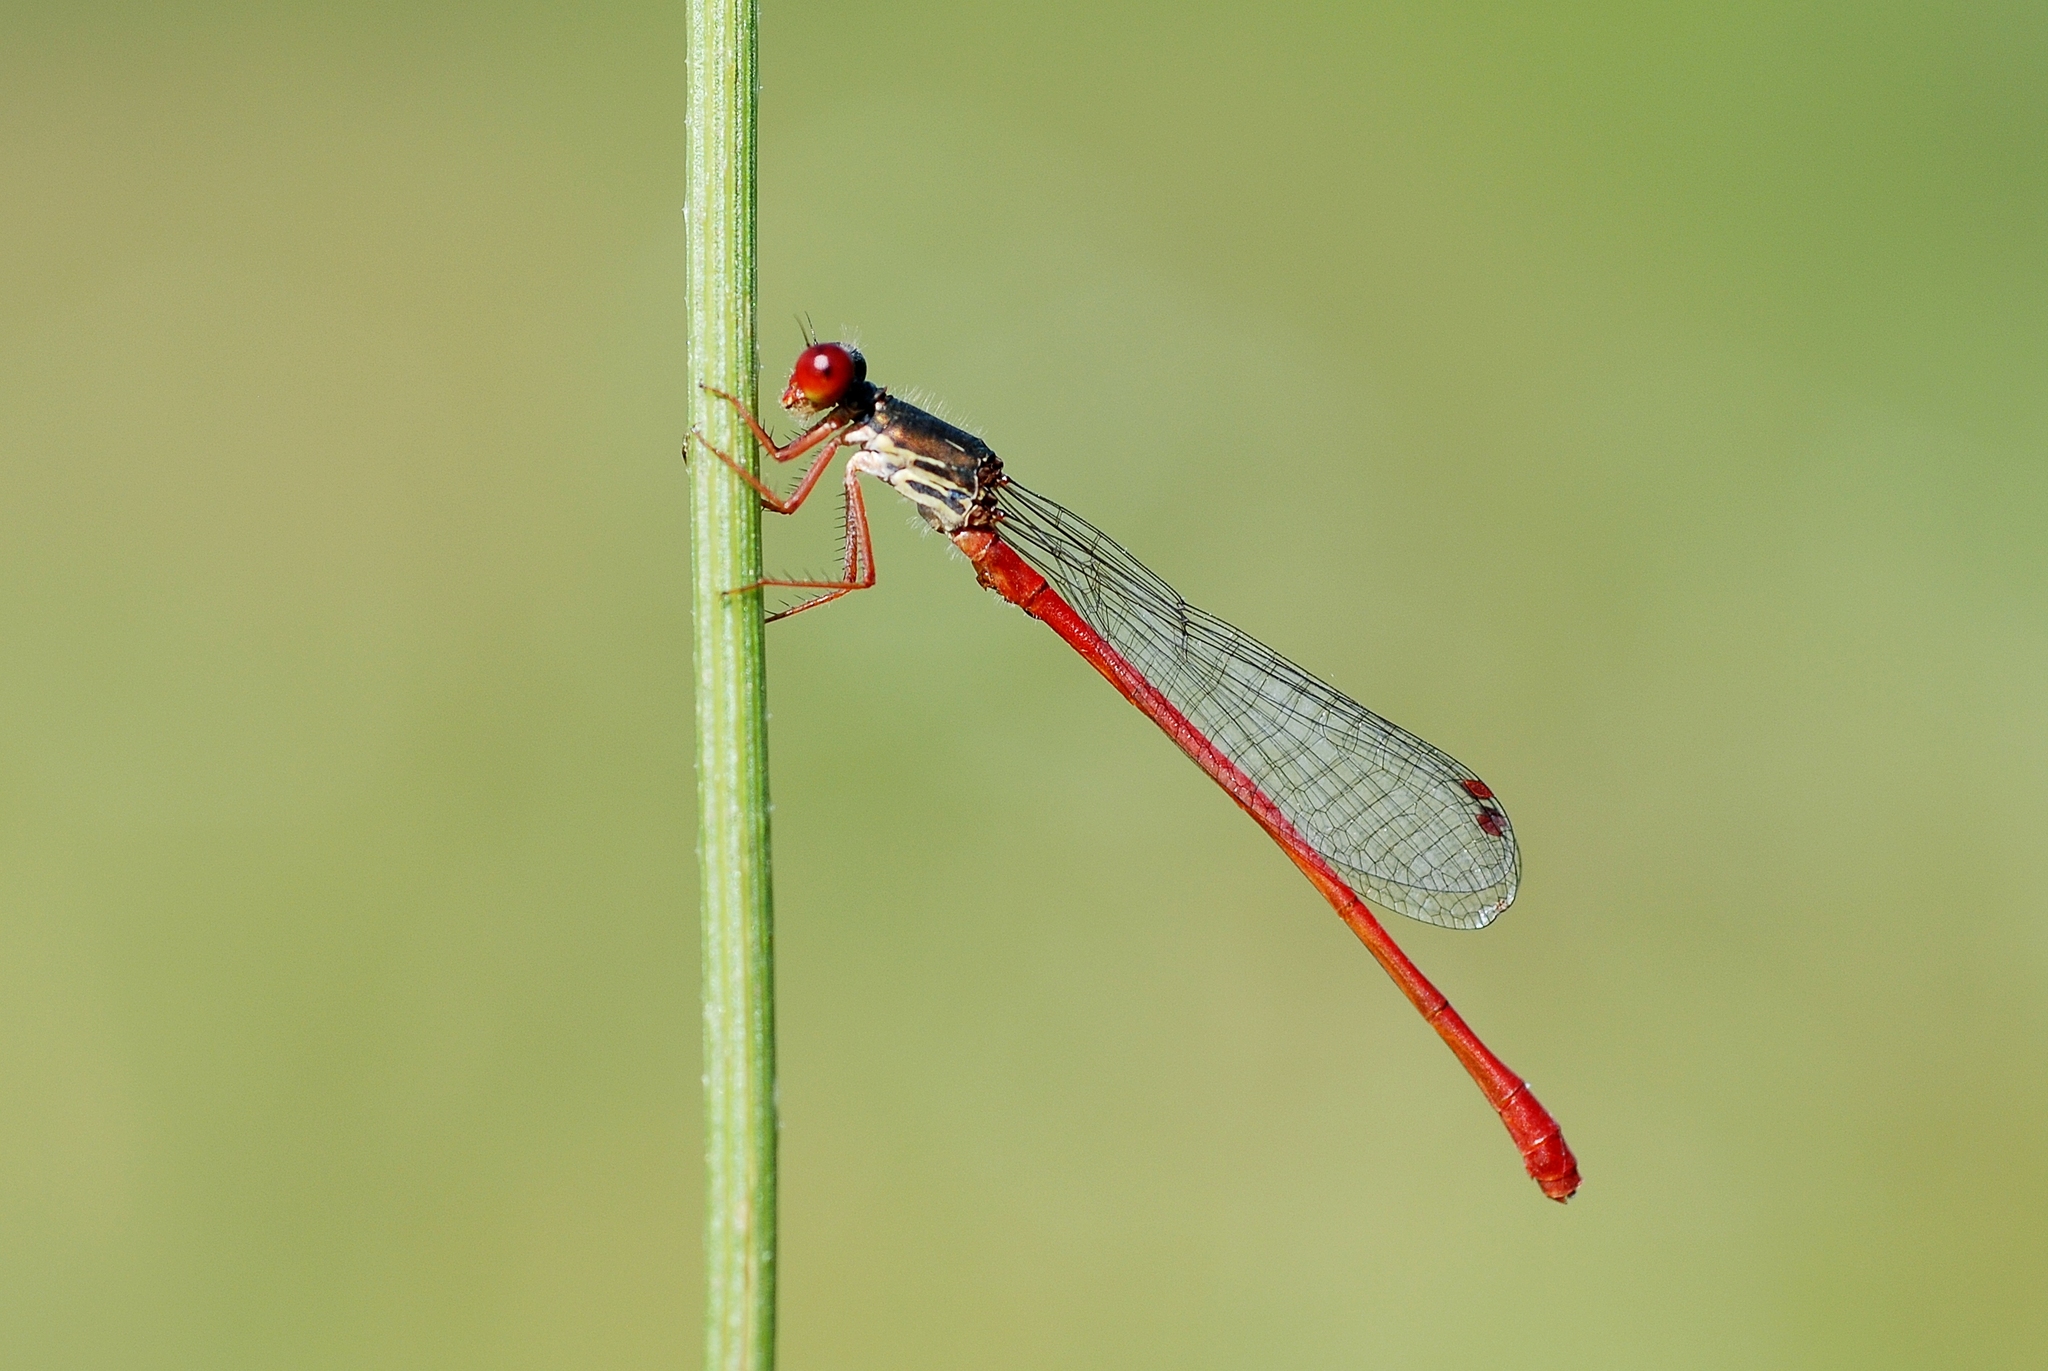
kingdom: Animalia
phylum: Arthropoda
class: Insecta
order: Odonata
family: Coenagrionidae
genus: Ceriagrion
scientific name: Ceriagrion tenellum
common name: Small red damselfly
